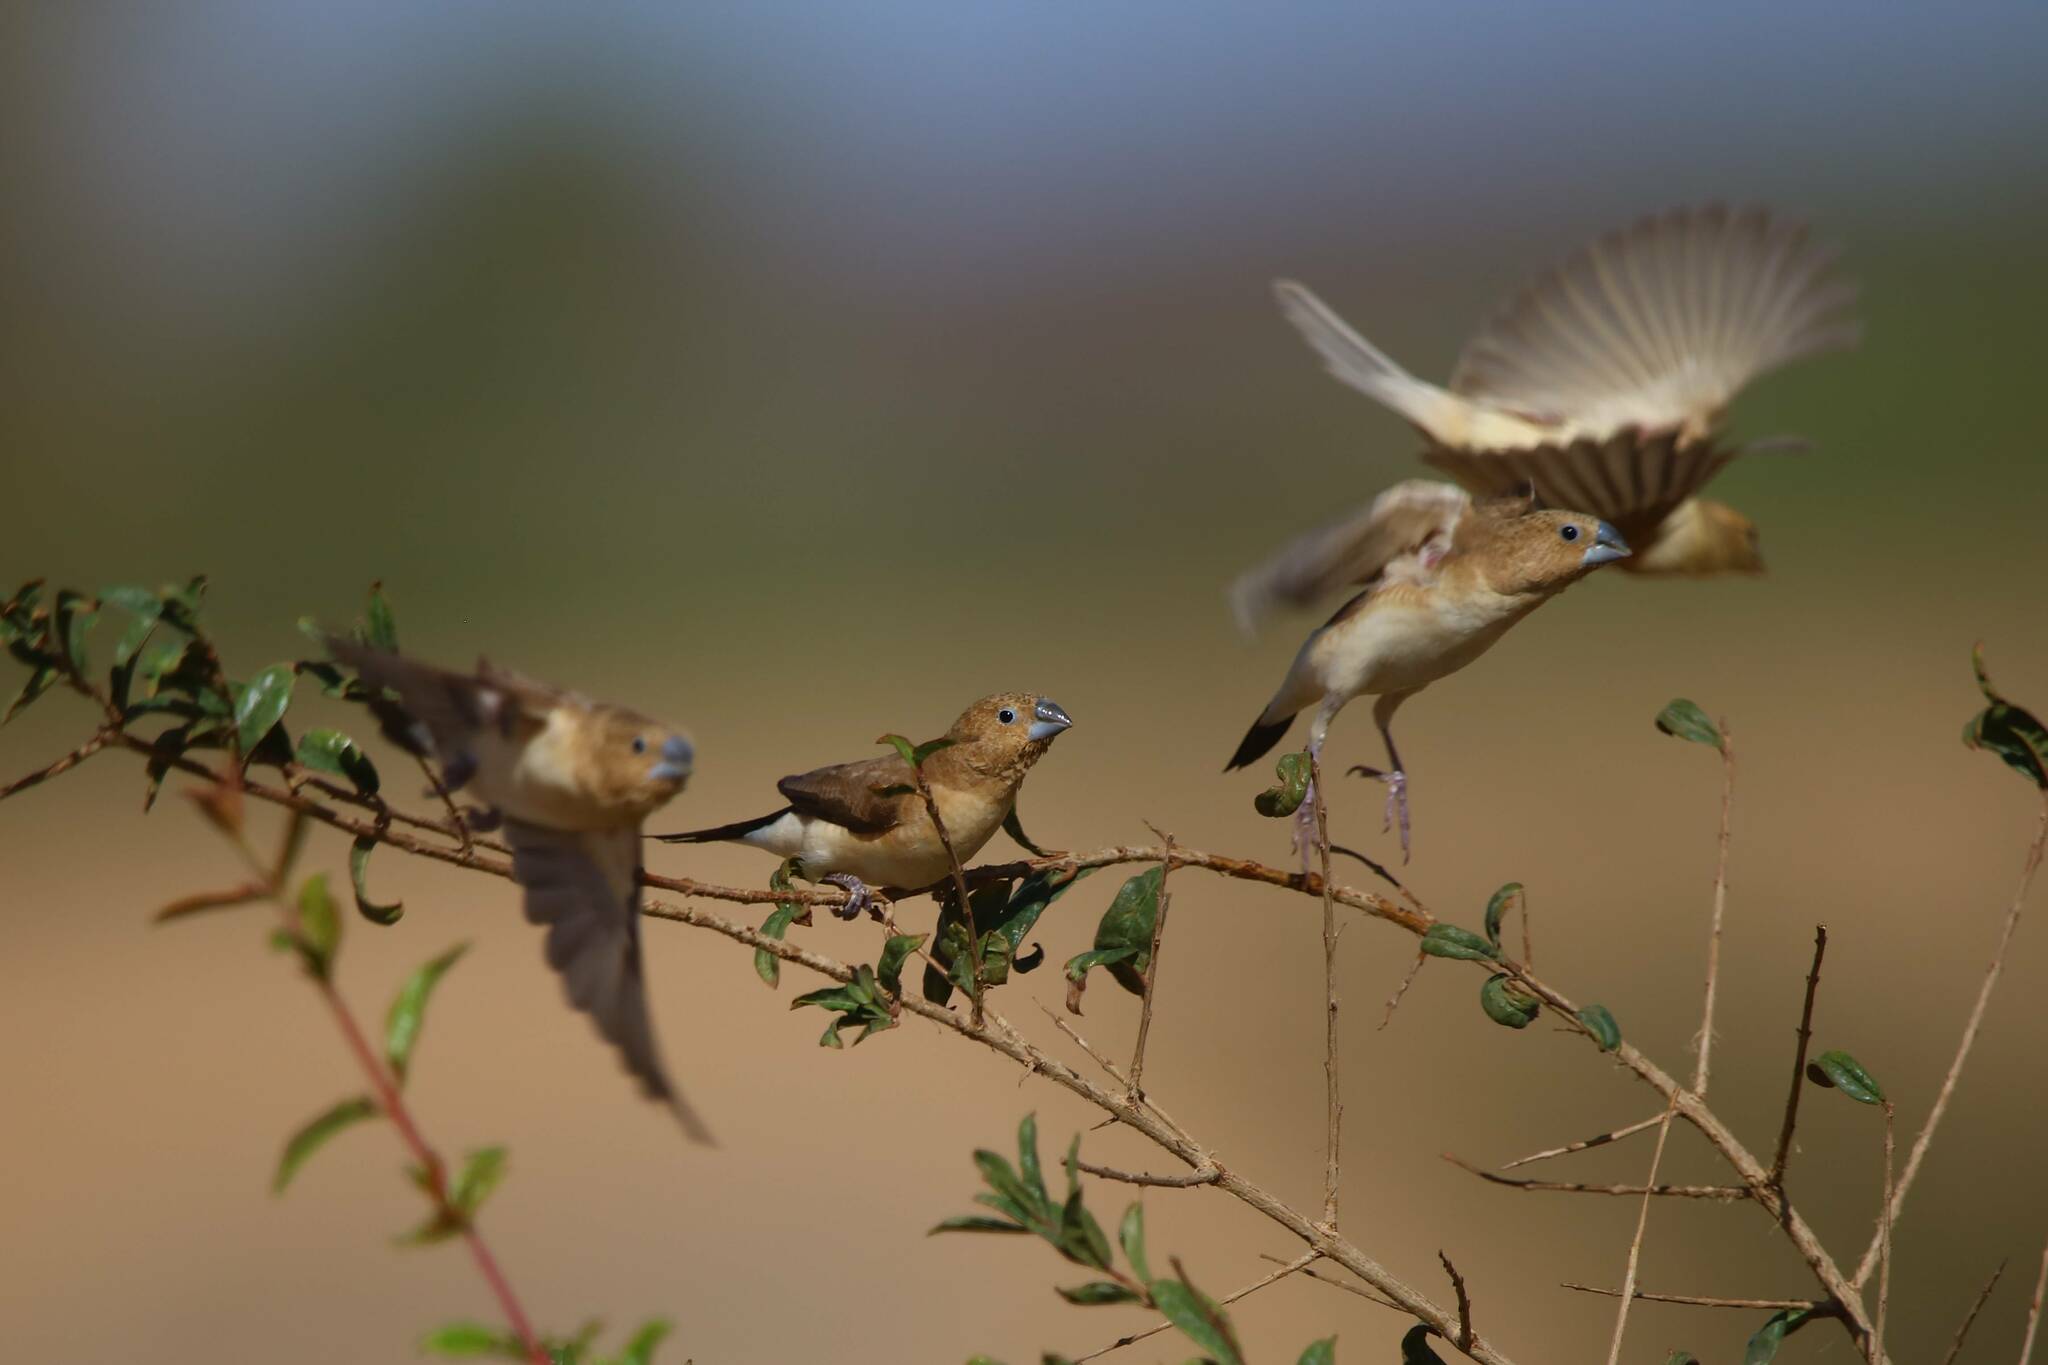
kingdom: Animalia
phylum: Chordata
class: Aves
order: Passeriformes
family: Estrildidae
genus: Euodice
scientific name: Euodice cantans
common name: African silverbill
